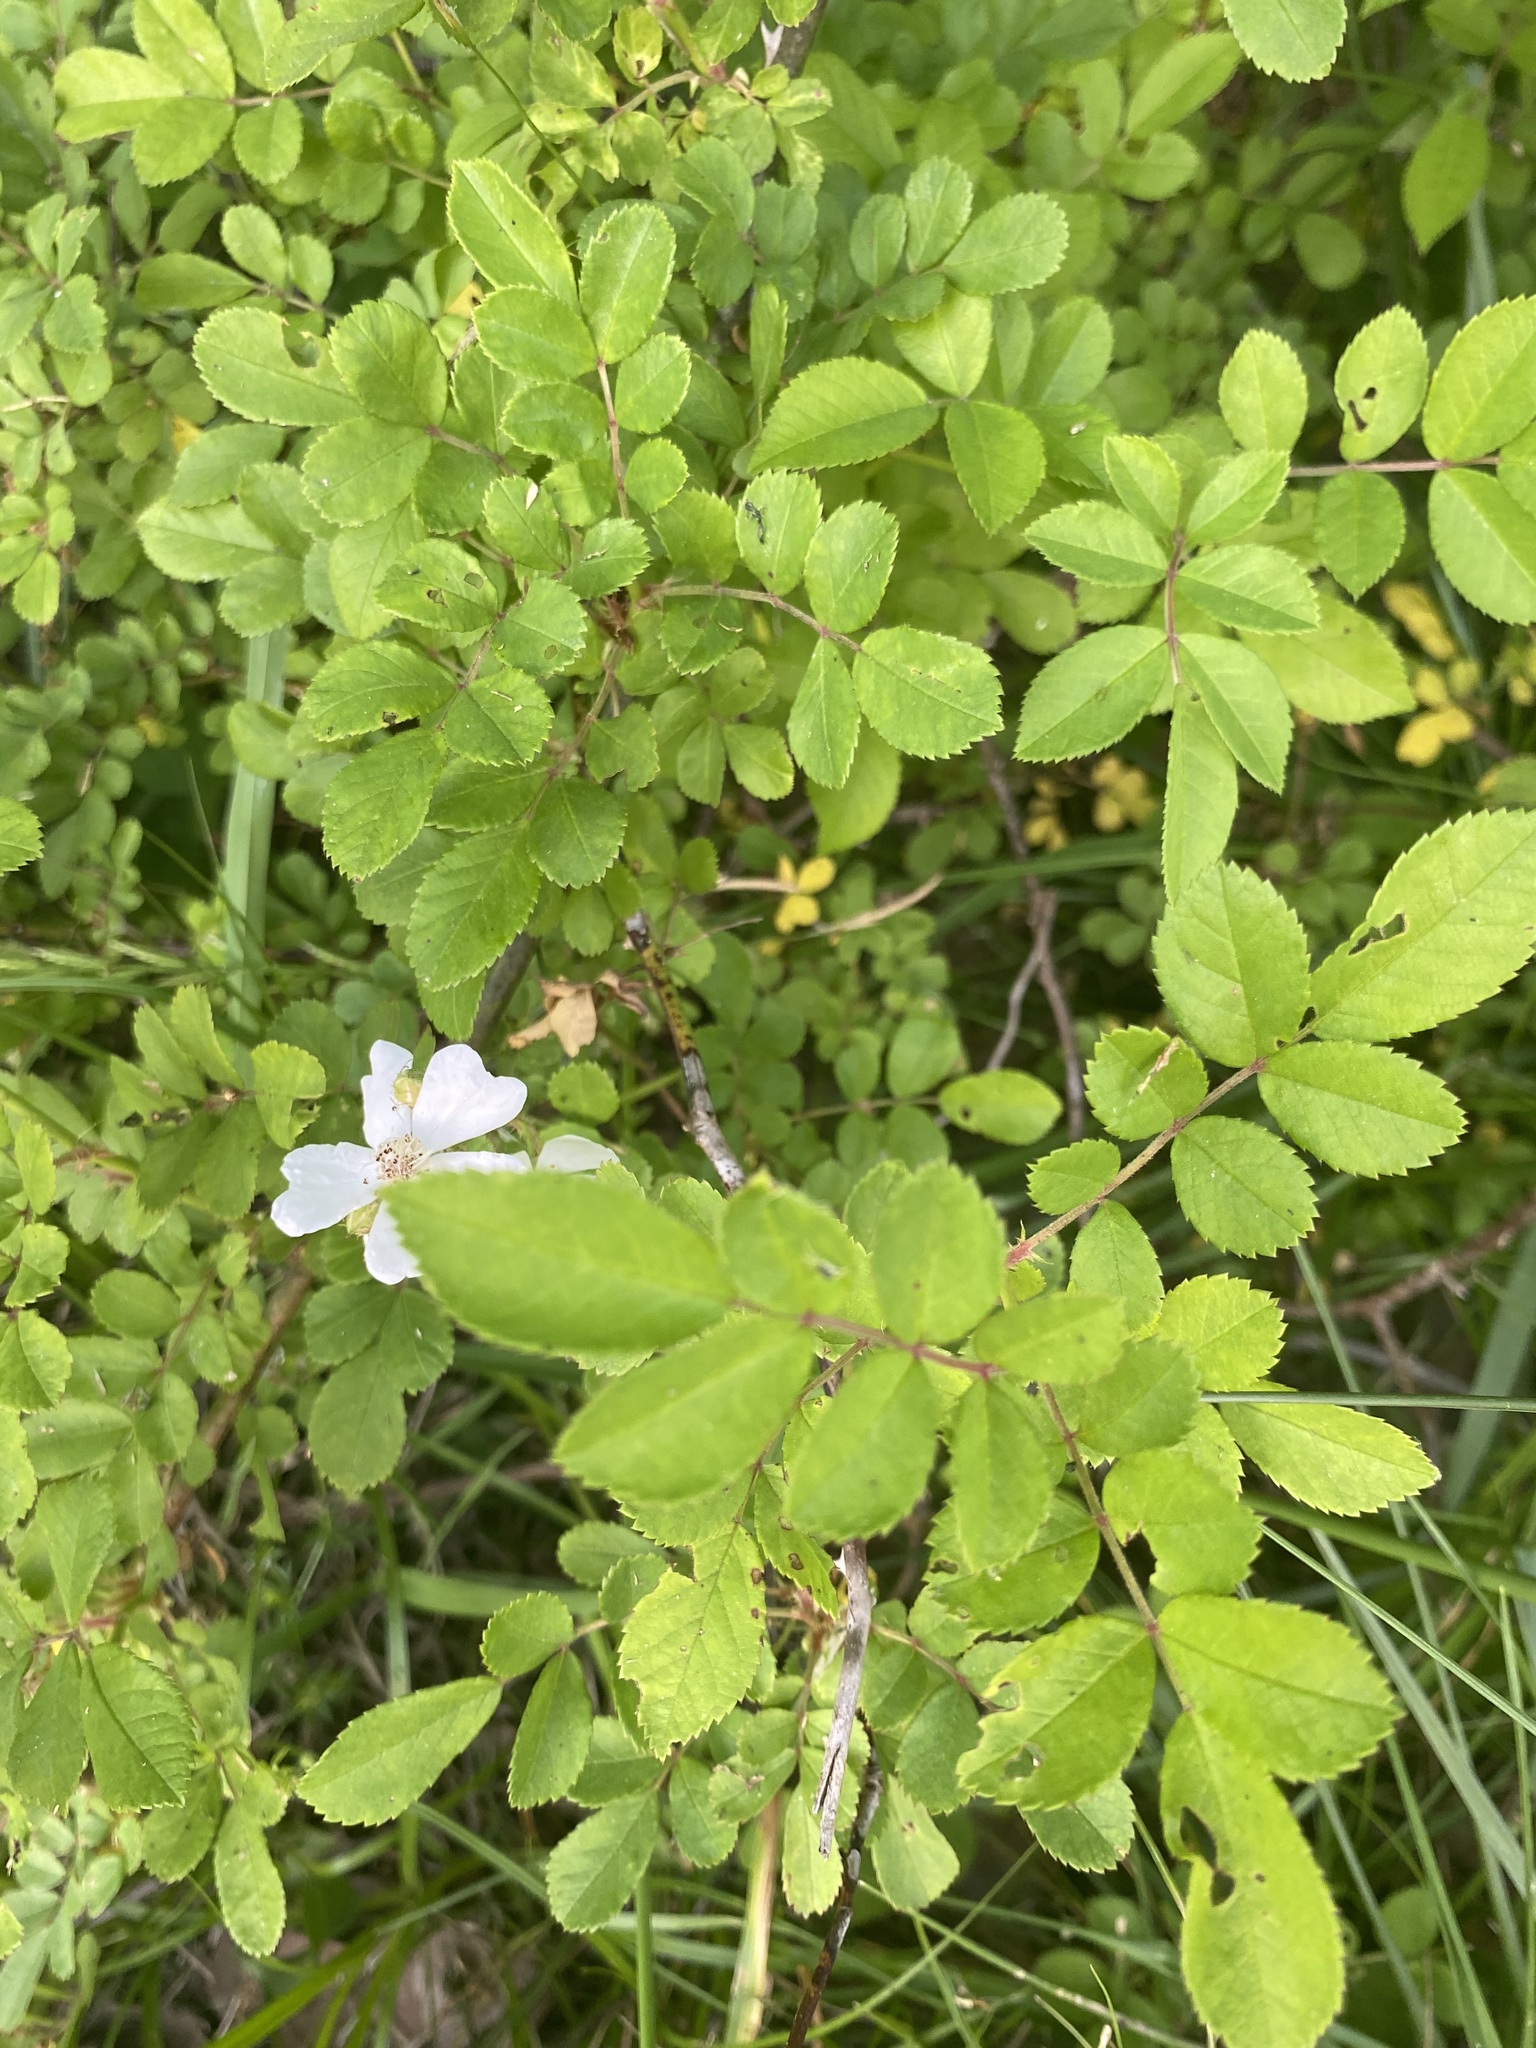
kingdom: Plantae
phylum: Tracheophyta
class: Magnoliopsida
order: Rosales
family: Rosaceae
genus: Rosa
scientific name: Rosa multiflora
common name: Multiflora rose
